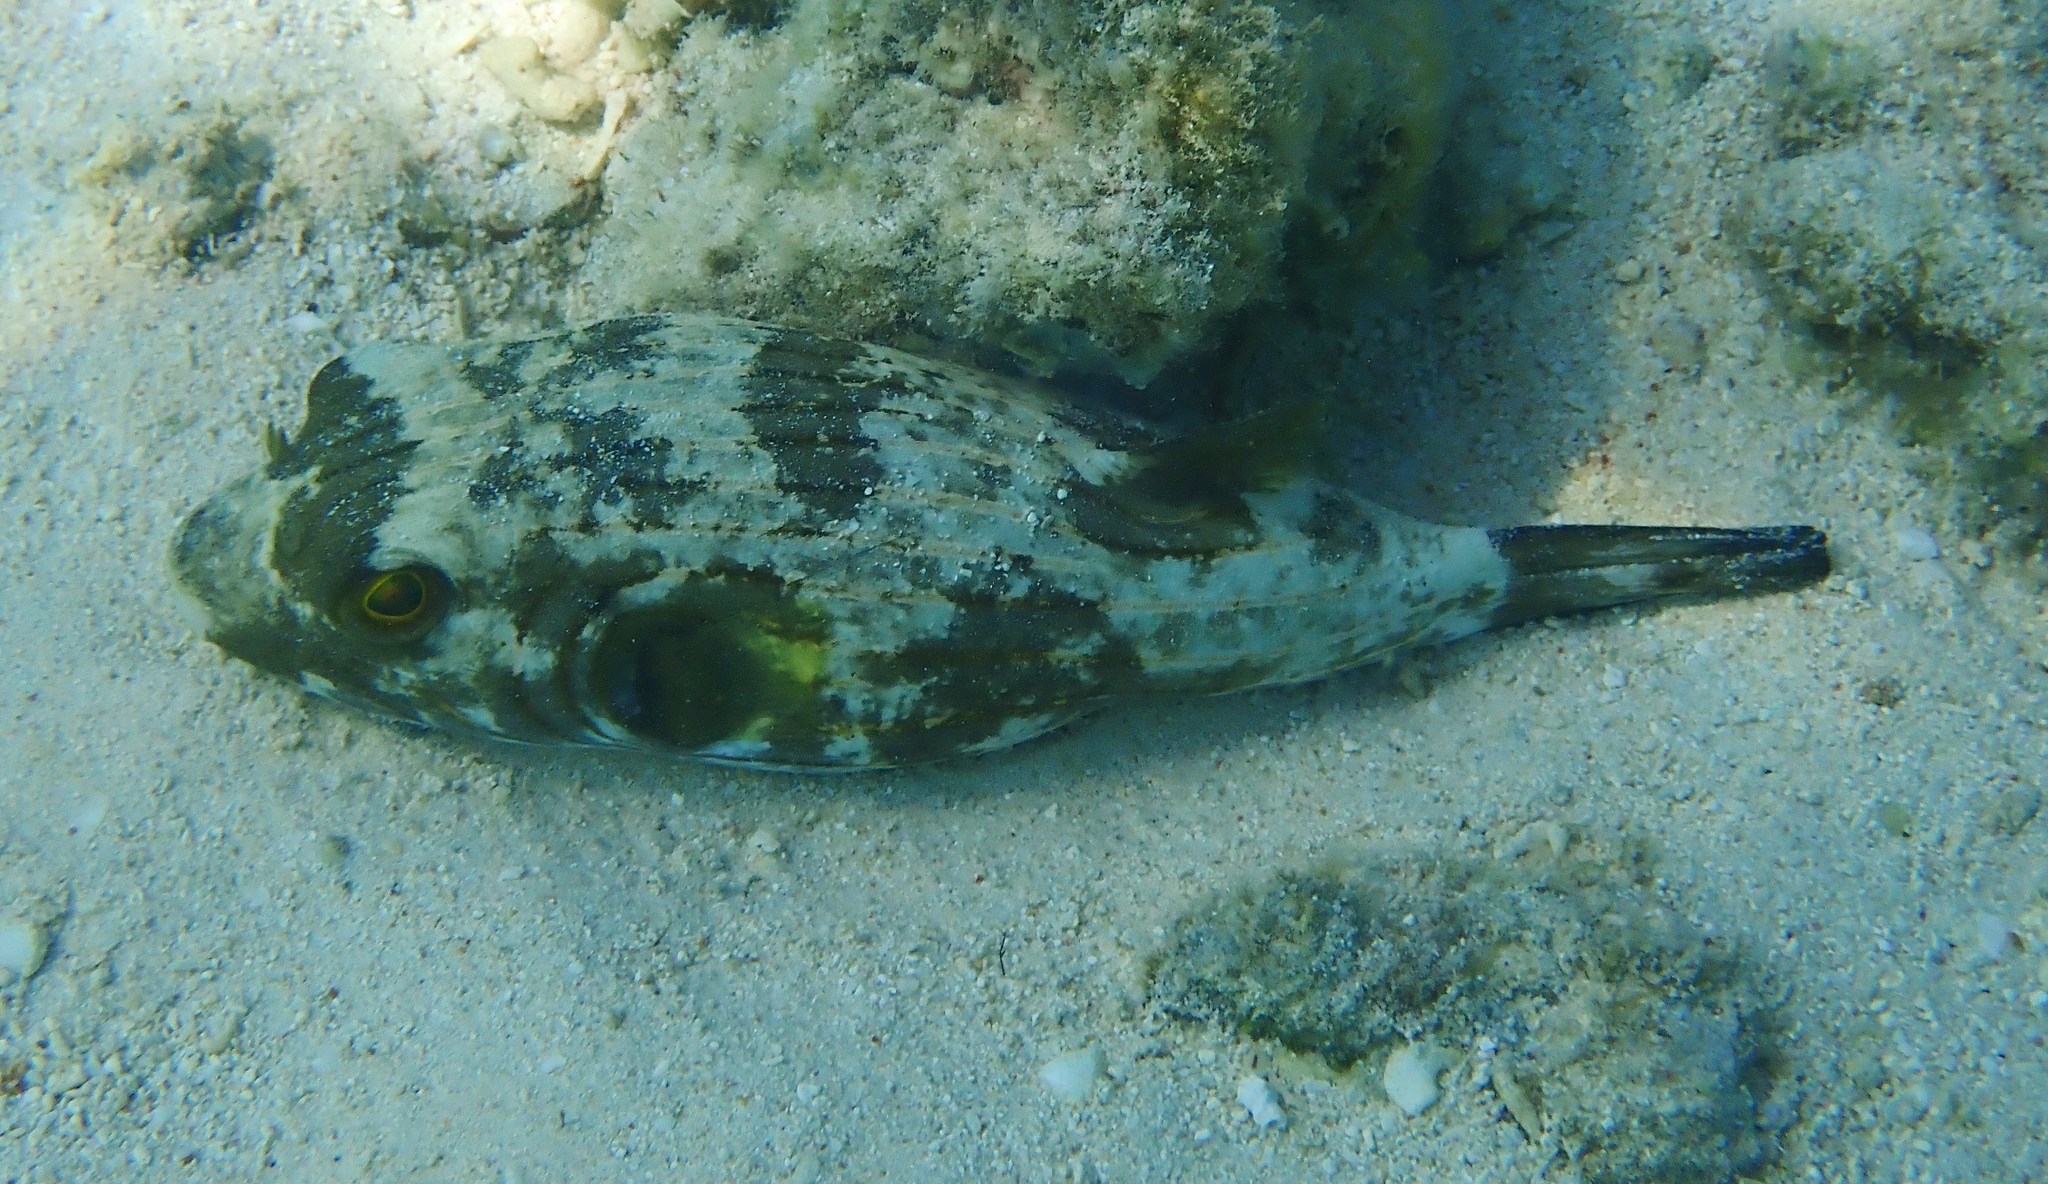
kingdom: Animalia
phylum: Chordata
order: Tetraodontiformes
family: Tetraodontidae
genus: Arothron
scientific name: Arothron manilensis
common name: Narrow-lined puffer
